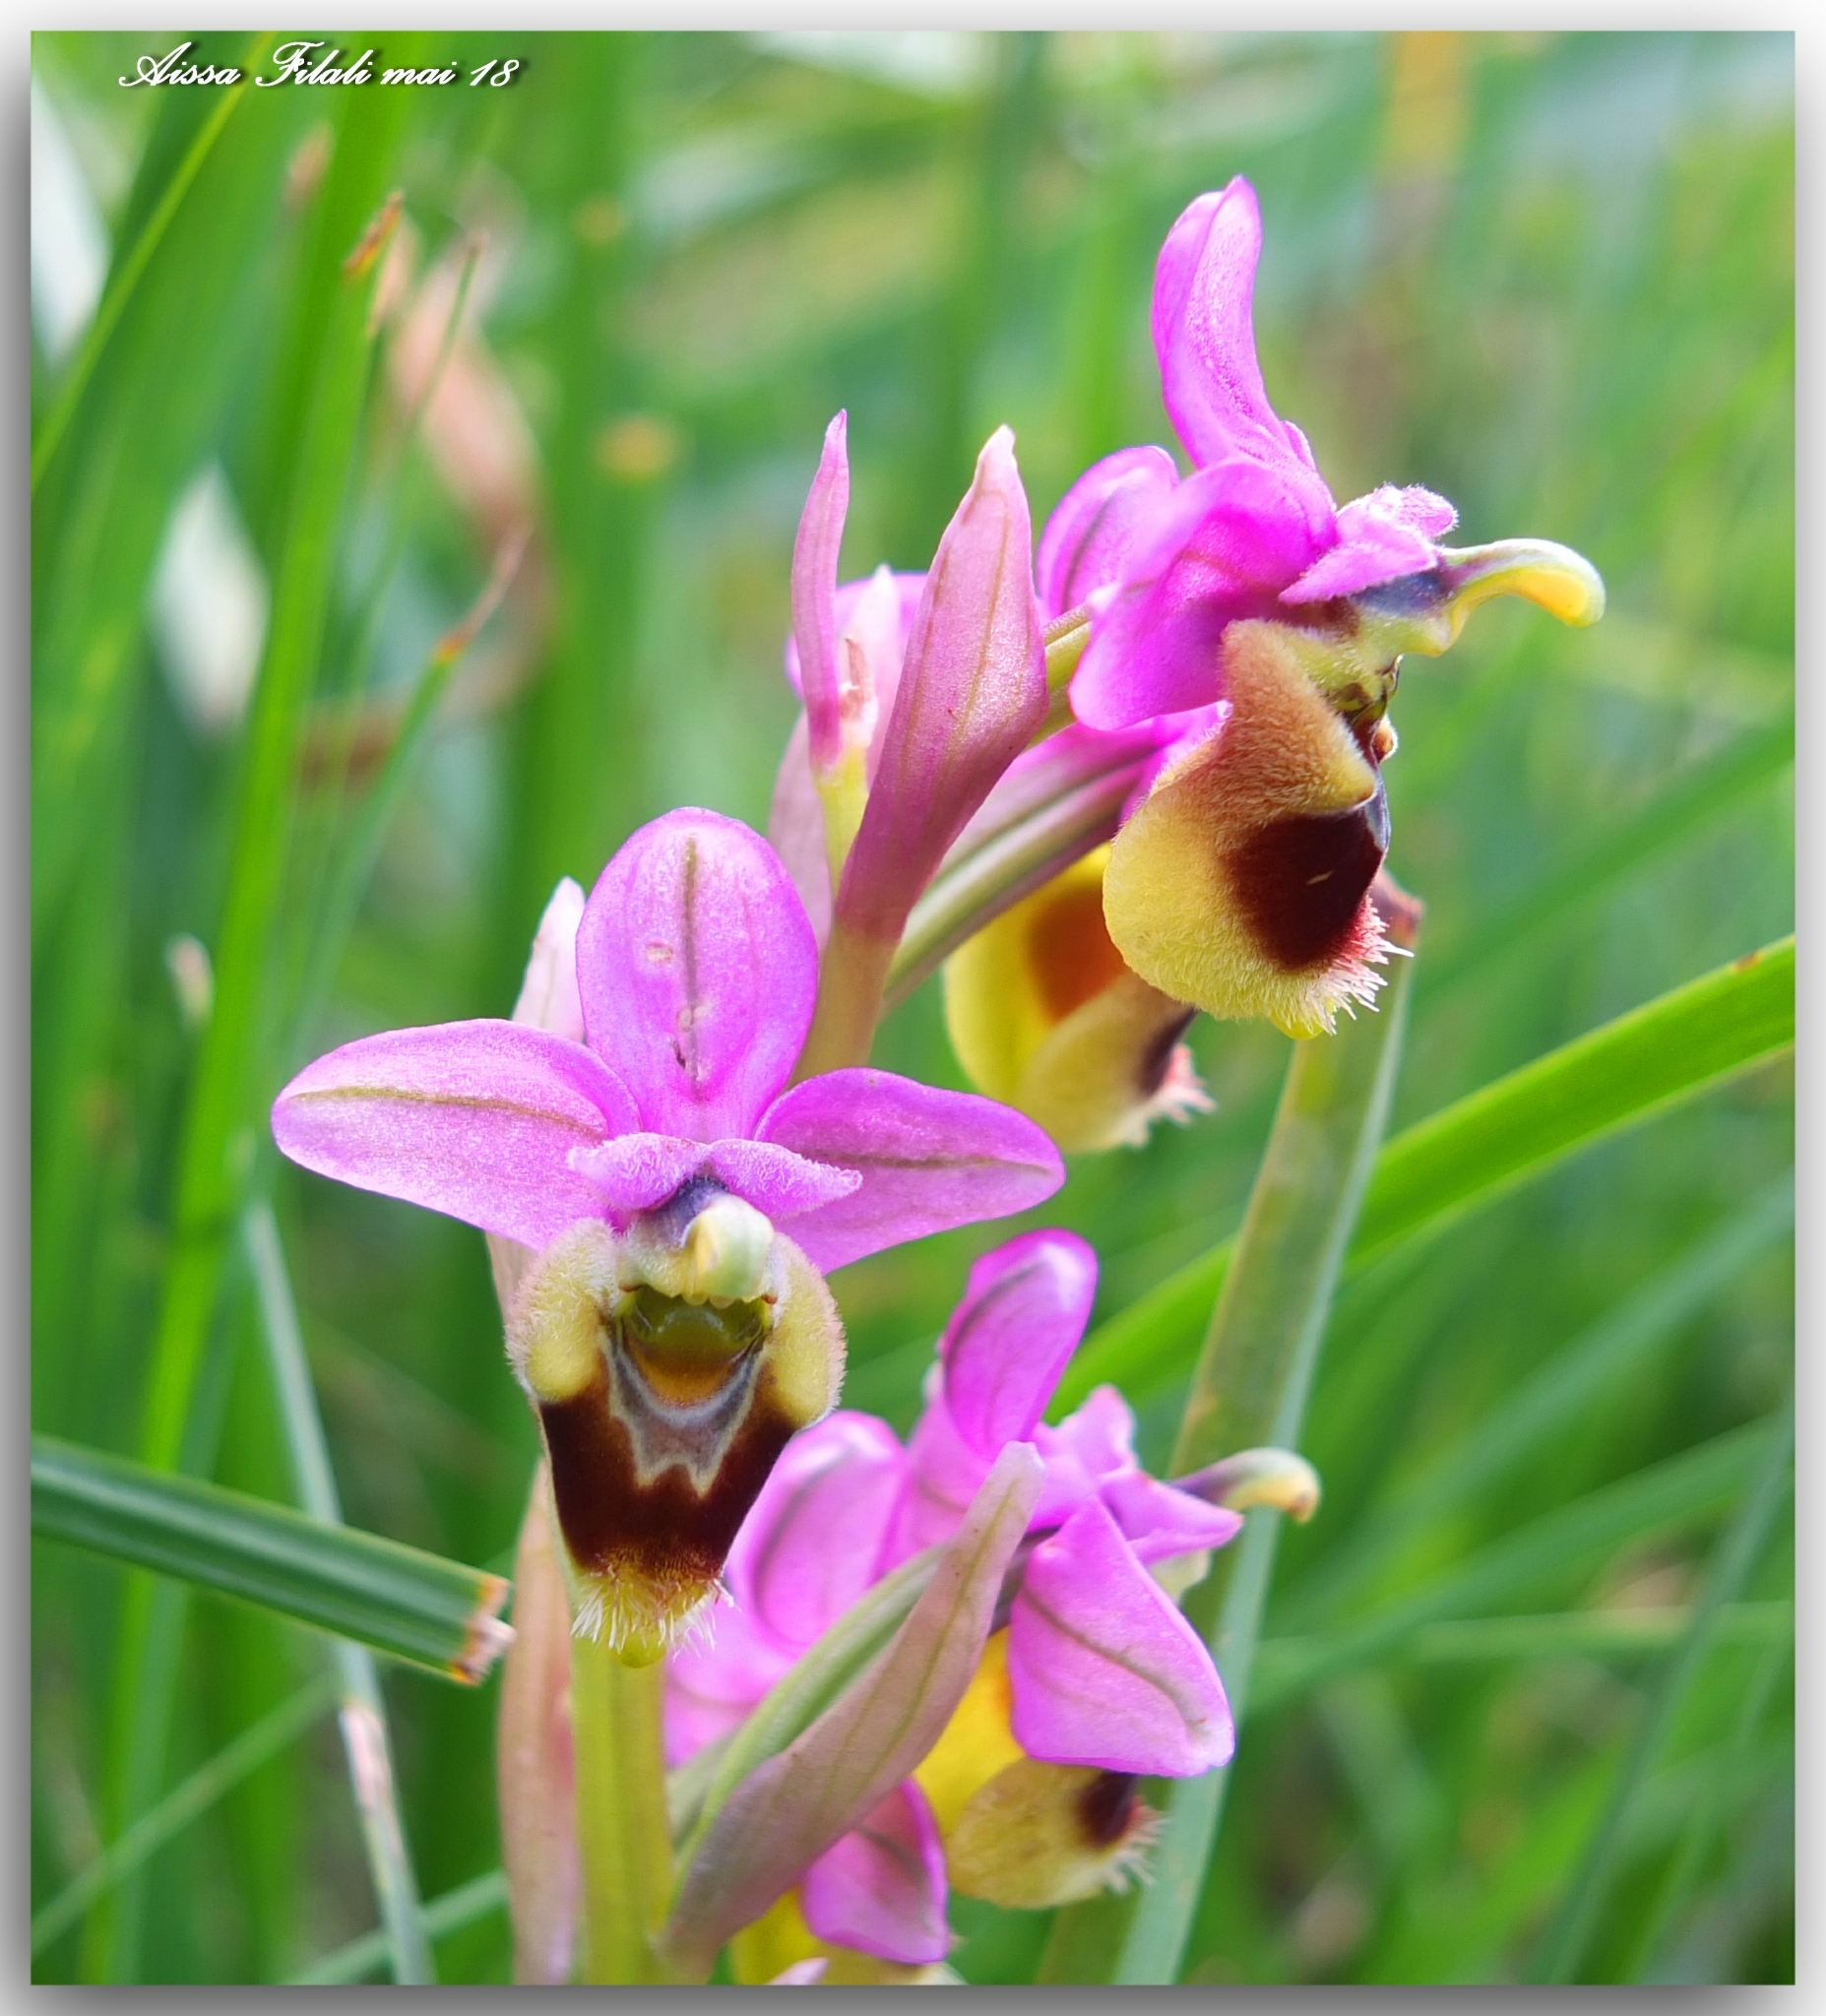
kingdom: Plantae
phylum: Tracheophyta
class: Liliopsida
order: Asparagales
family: Orchidaceae
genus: Ophrys
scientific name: Ophrys tenthredinifera
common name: Sawfly orchid
